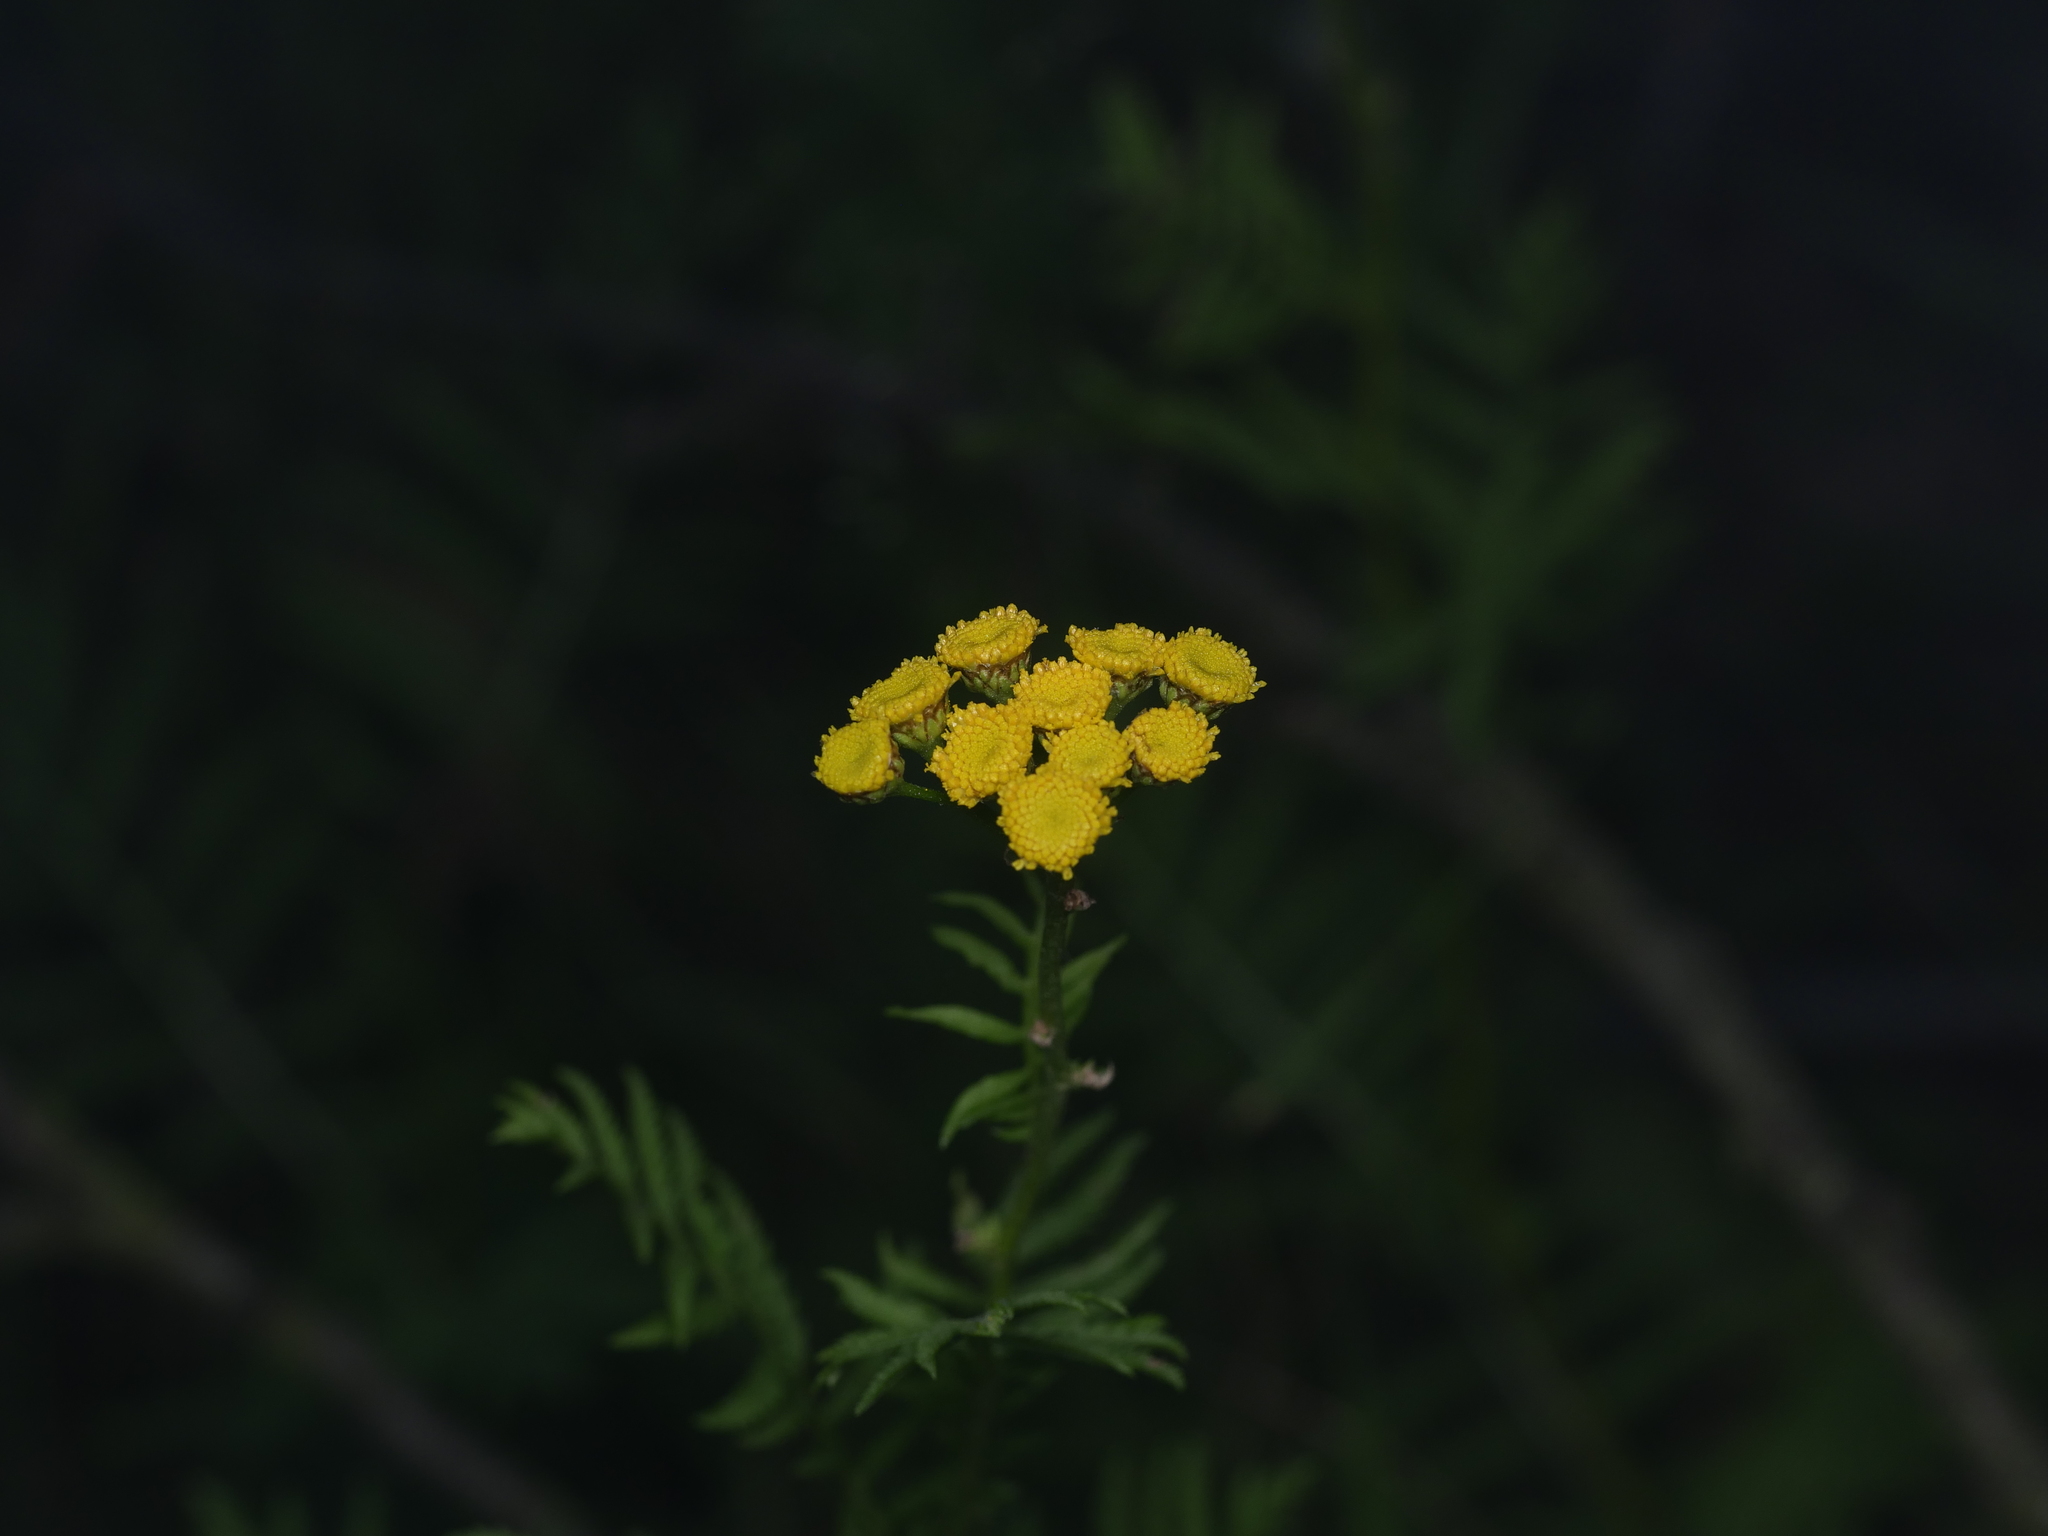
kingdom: Plantae
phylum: Tracheophyta
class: Magnoliopsida
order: Asterales
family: Asteraceae
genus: Tanacetum
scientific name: Tanacetum vulgare
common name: Common tansy
